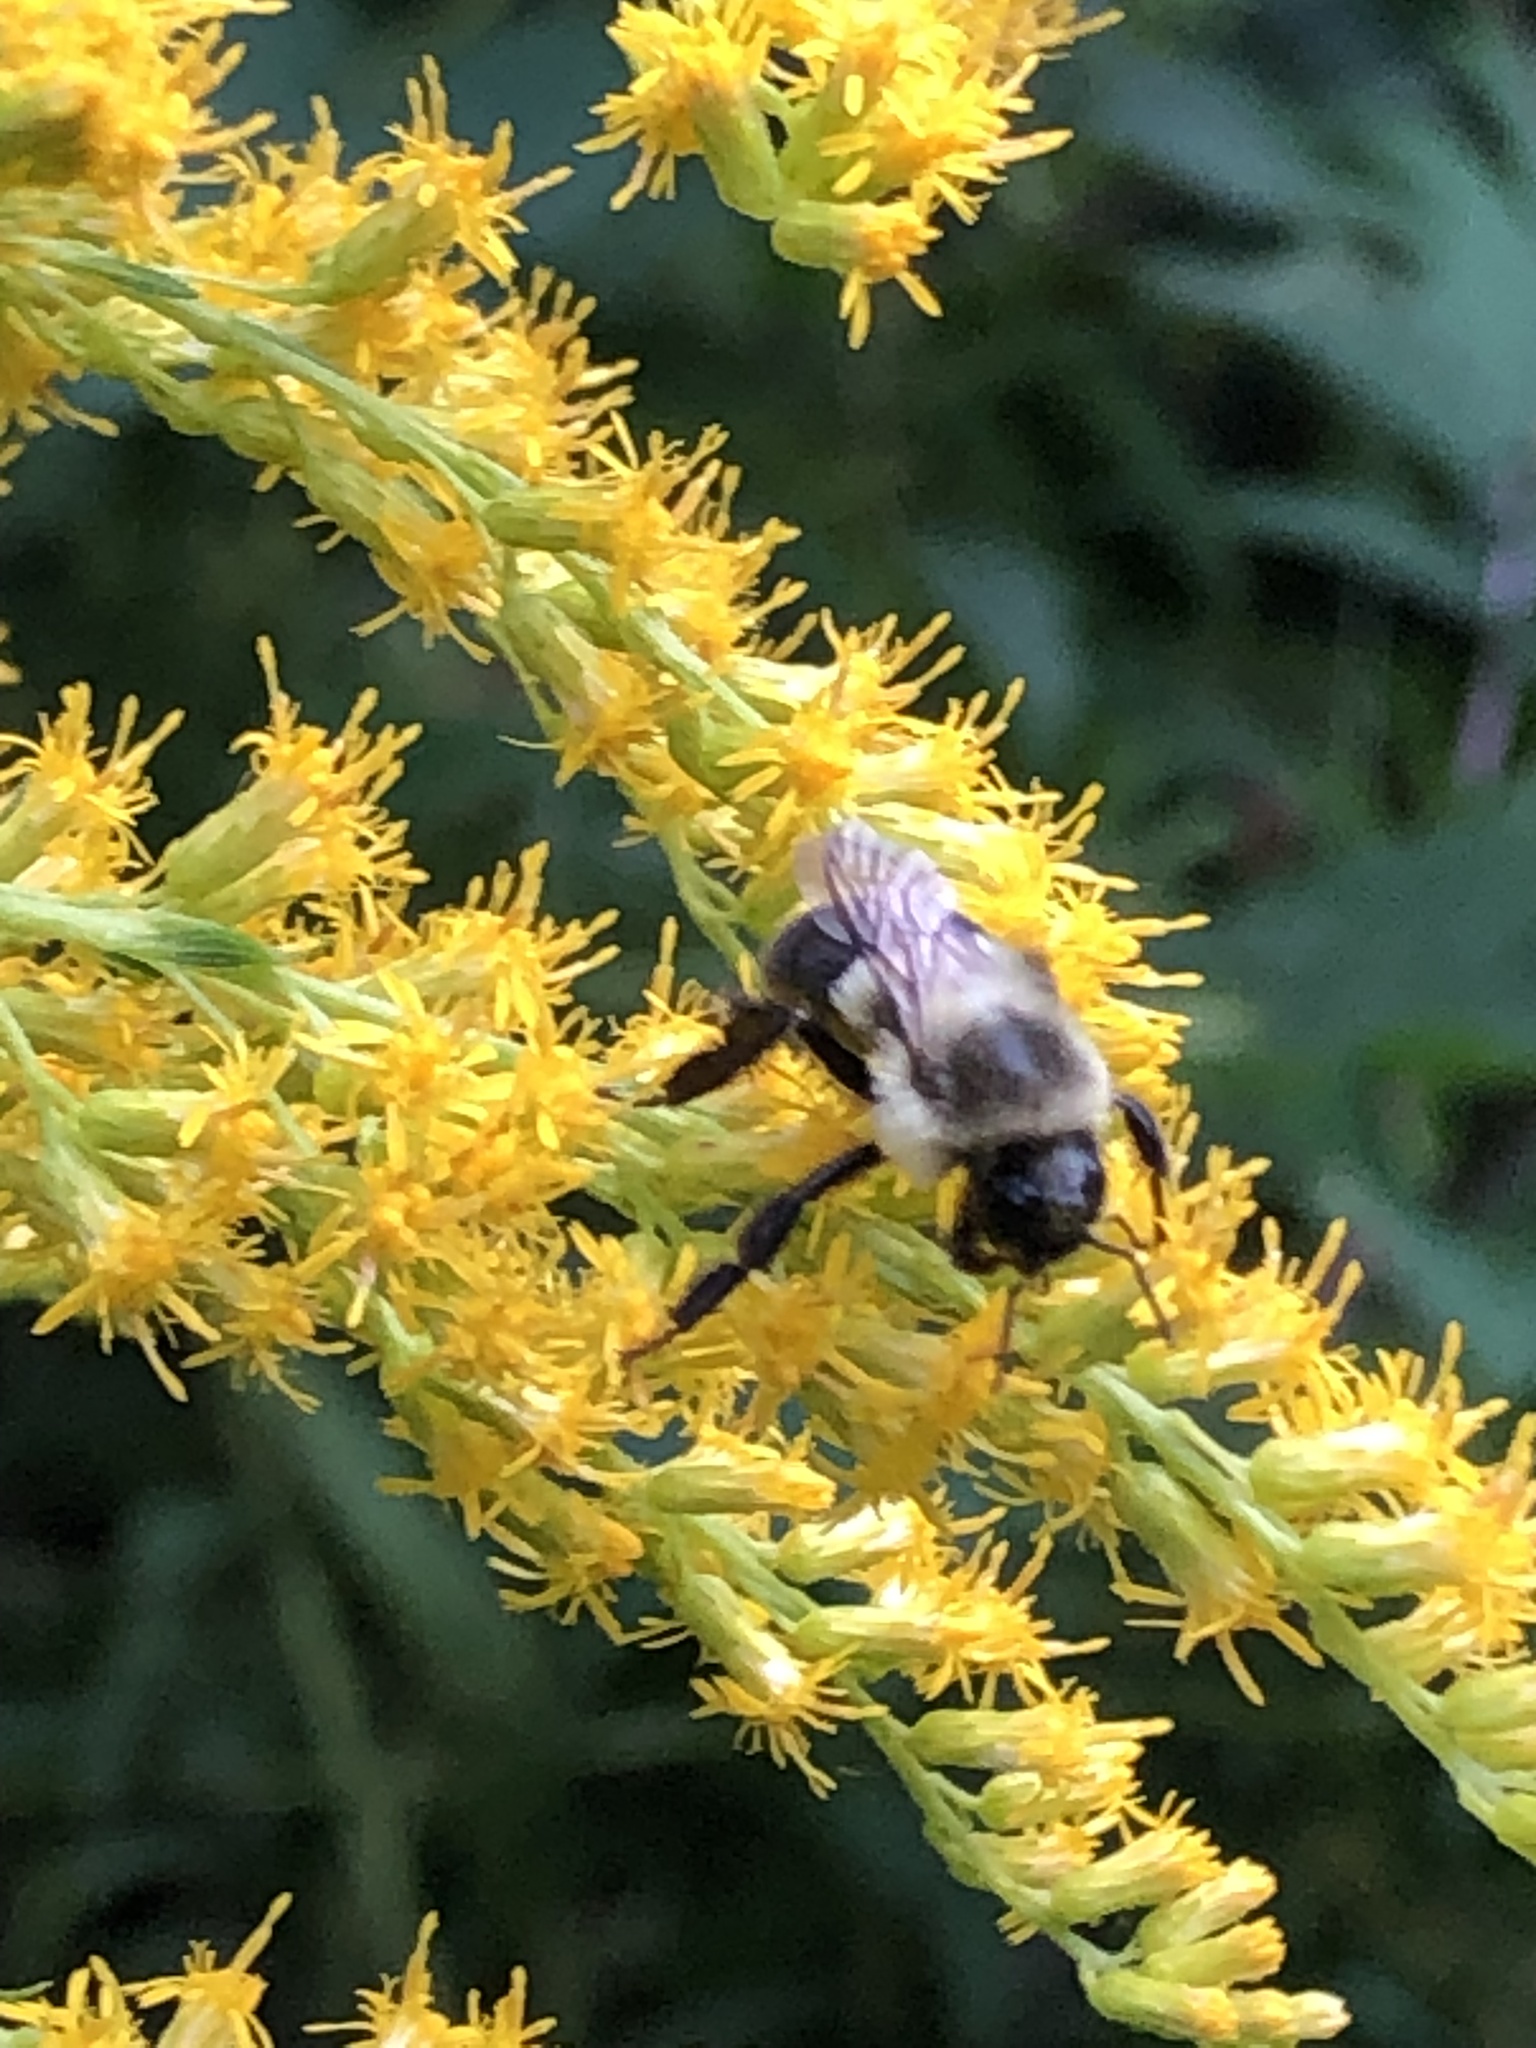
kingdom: Animalia
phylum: Arthropoda
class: Insecta
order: Hymenoptera
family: Apidae
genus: Bombus
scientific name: Bombus impatiens
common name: Common eastern bumble bee
